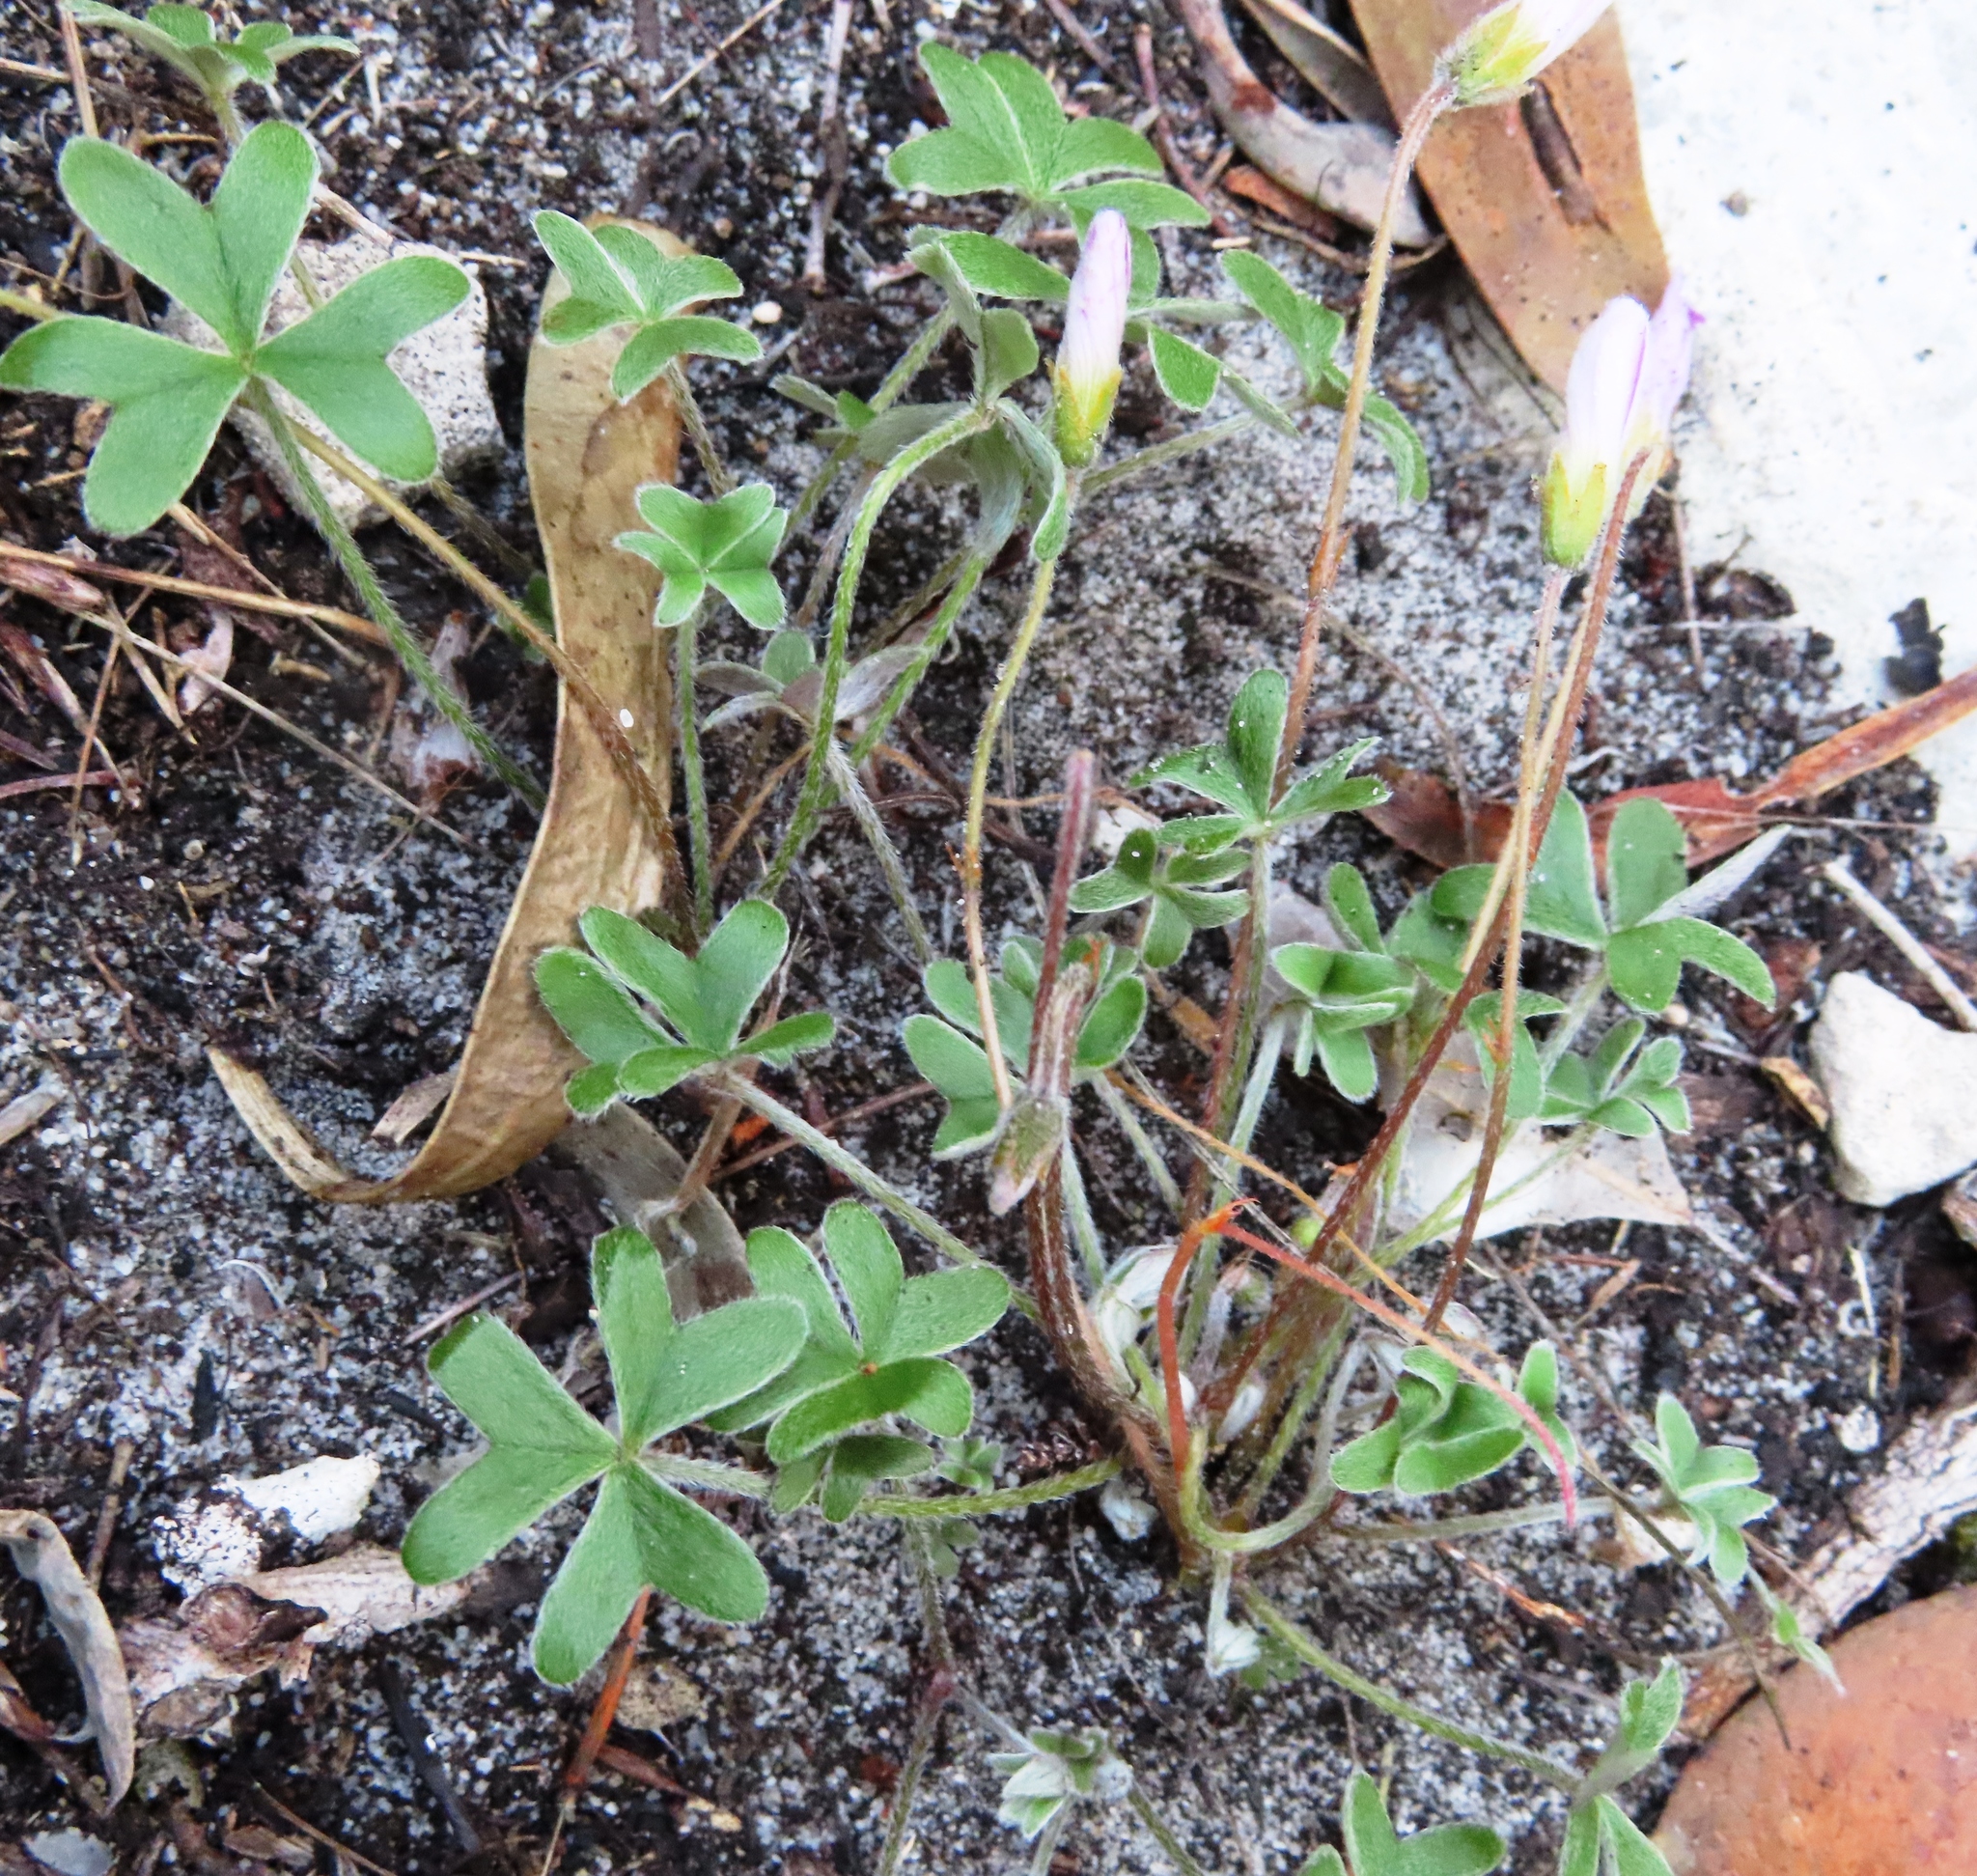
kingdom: Plantae
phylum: Tracheophyta
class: Magnoliopsida
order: Oxalidales
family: Oxalidaceae
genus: Oxalis
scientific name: Oxalis truncatula
